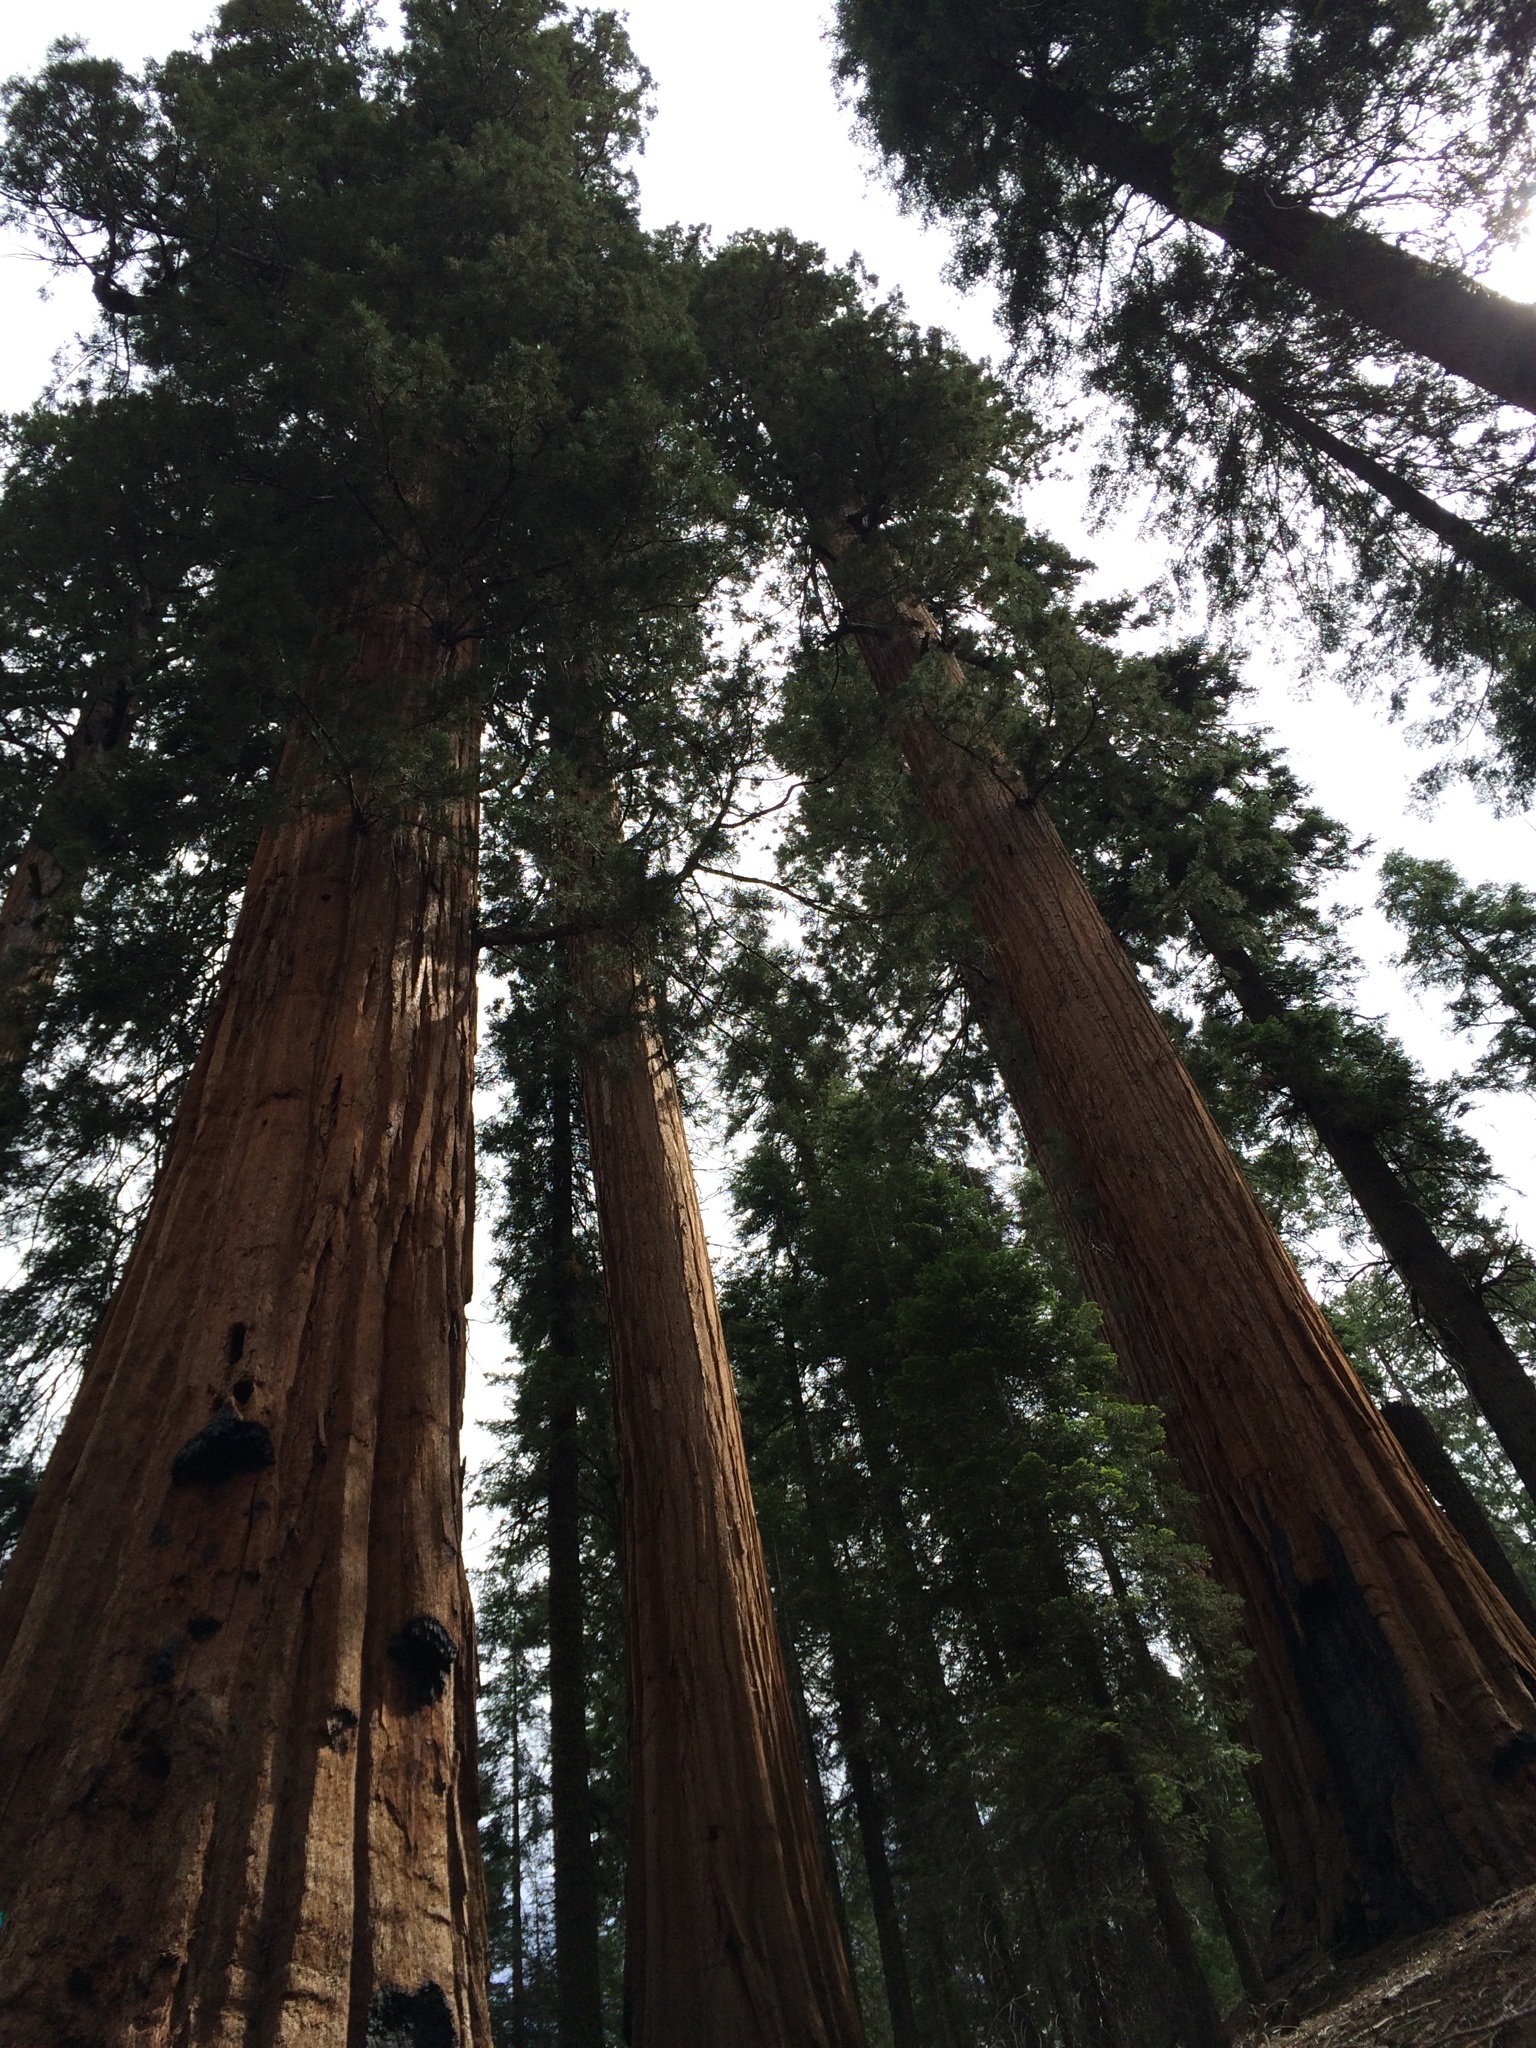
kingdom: Plantae
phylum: Tracheophyta
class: Pinopsida
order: Pinales
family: Cupressaceae
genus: Sequoiadendron
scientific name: Sequoiadendron giganteum
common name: Wellingtonia
